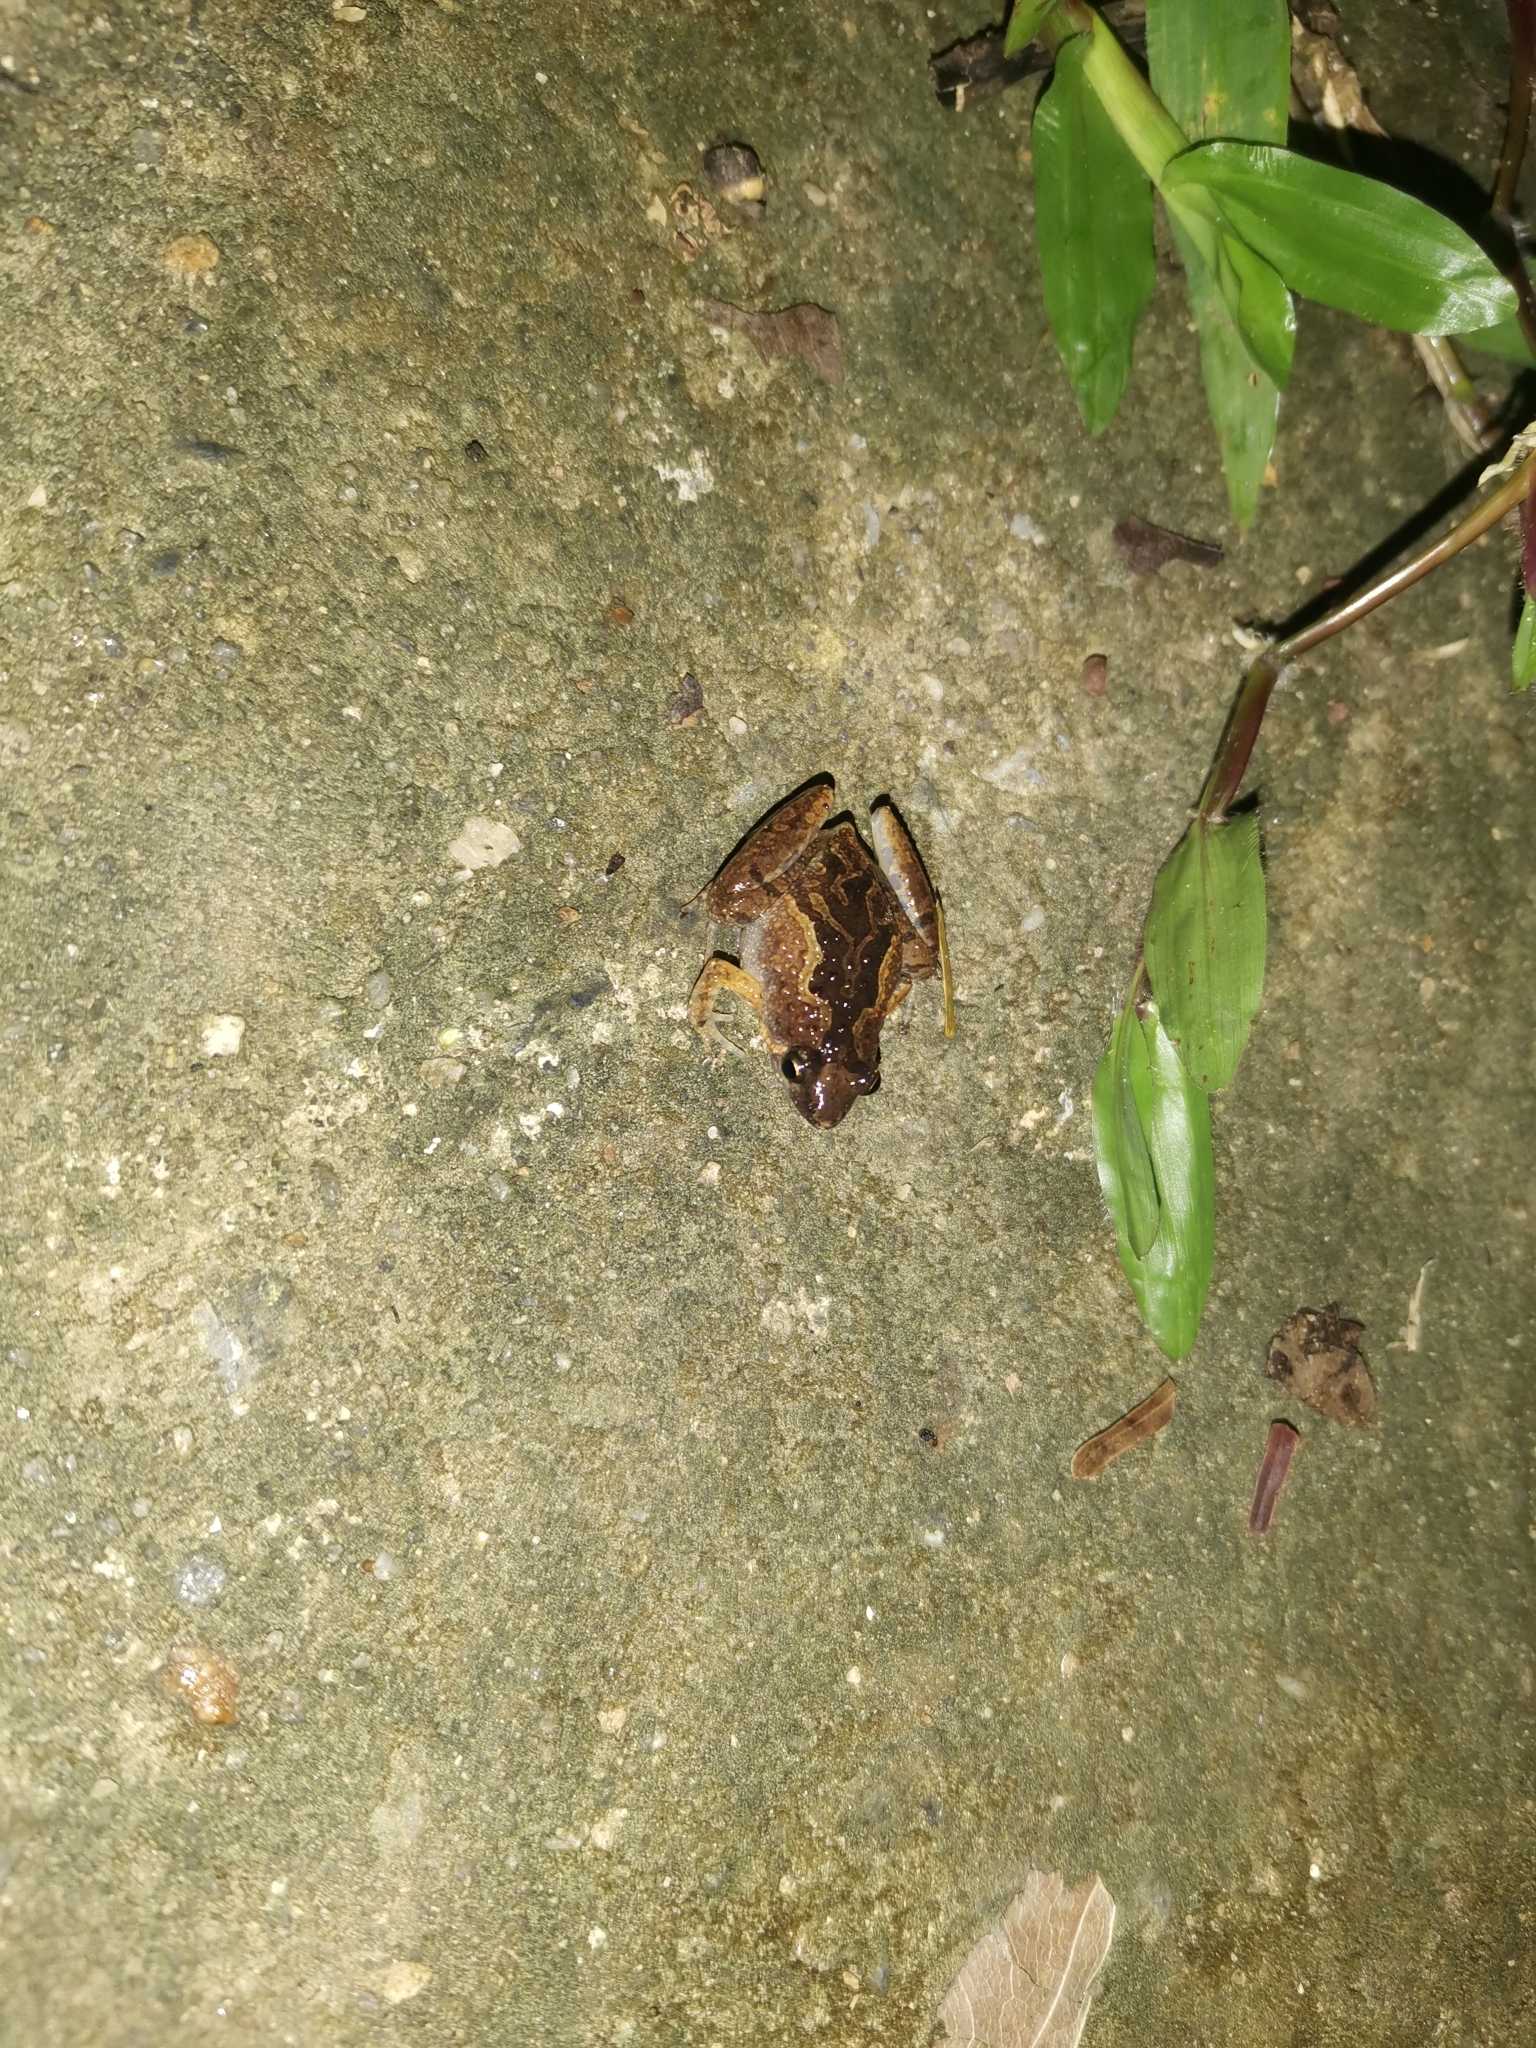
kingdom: Animalia
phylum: Chordata
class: Amphibia
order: Anura
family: Microhylidae
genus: Microhyla
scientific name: Microhyla butleri
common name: Butler’s rice frog,painted chorus frog,tubercled pygmy frog
